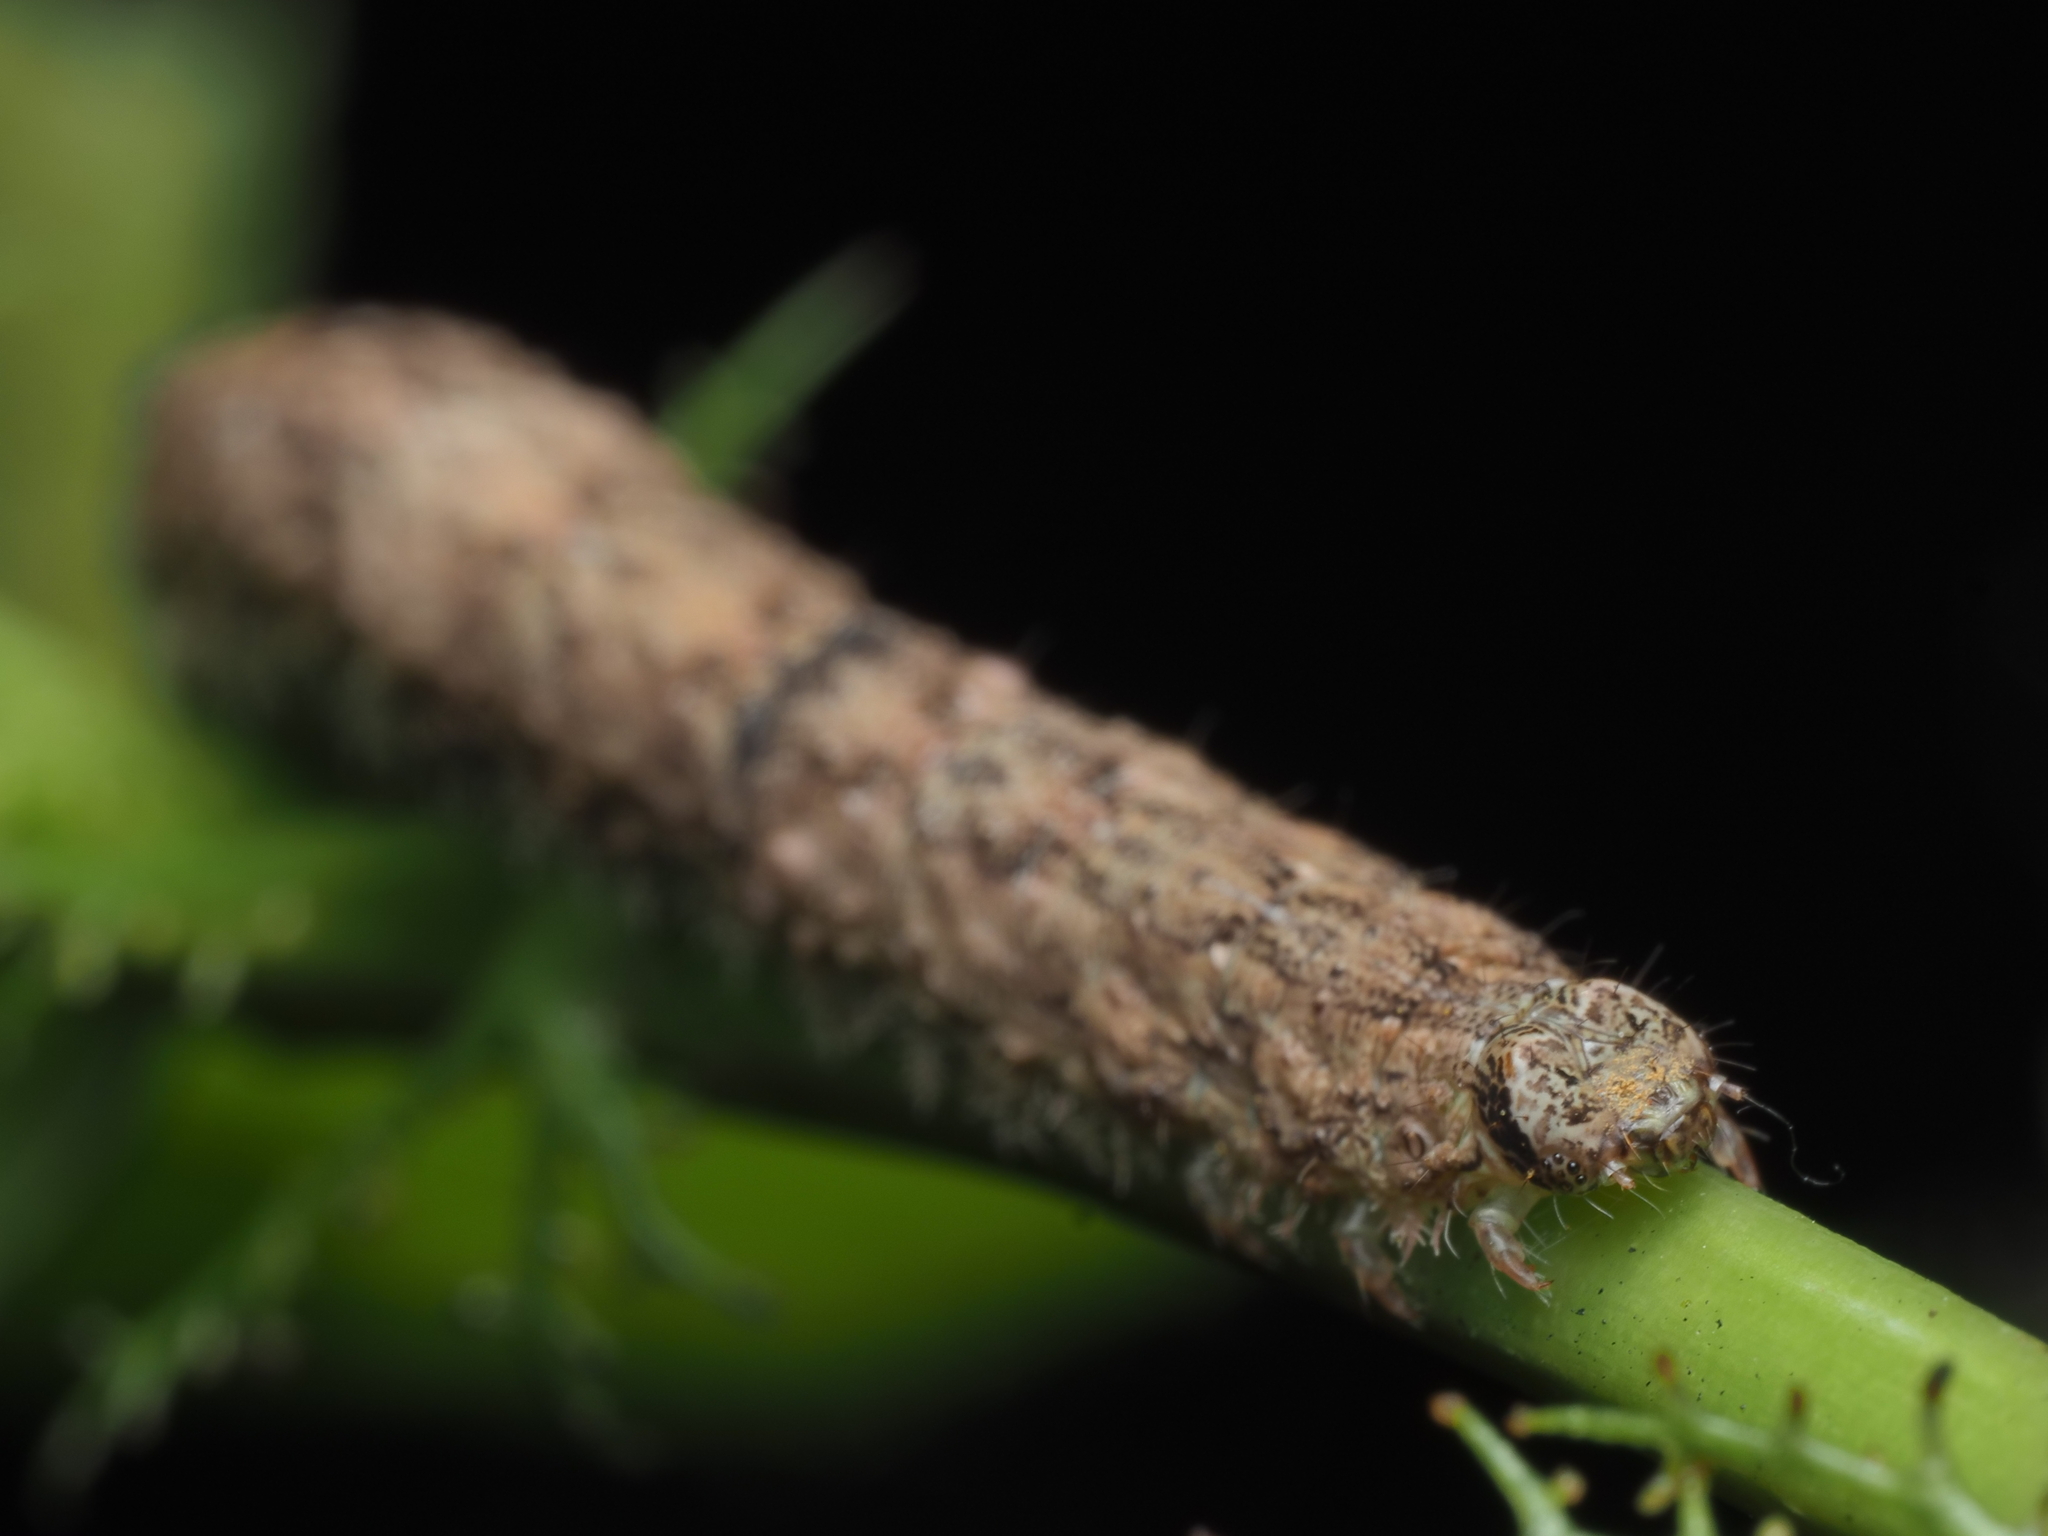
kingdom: Animalia
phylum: Arthropoda
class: Insecta
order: Lepidoptera
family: Geometridae
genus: Declana
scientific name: Declana floccosa
